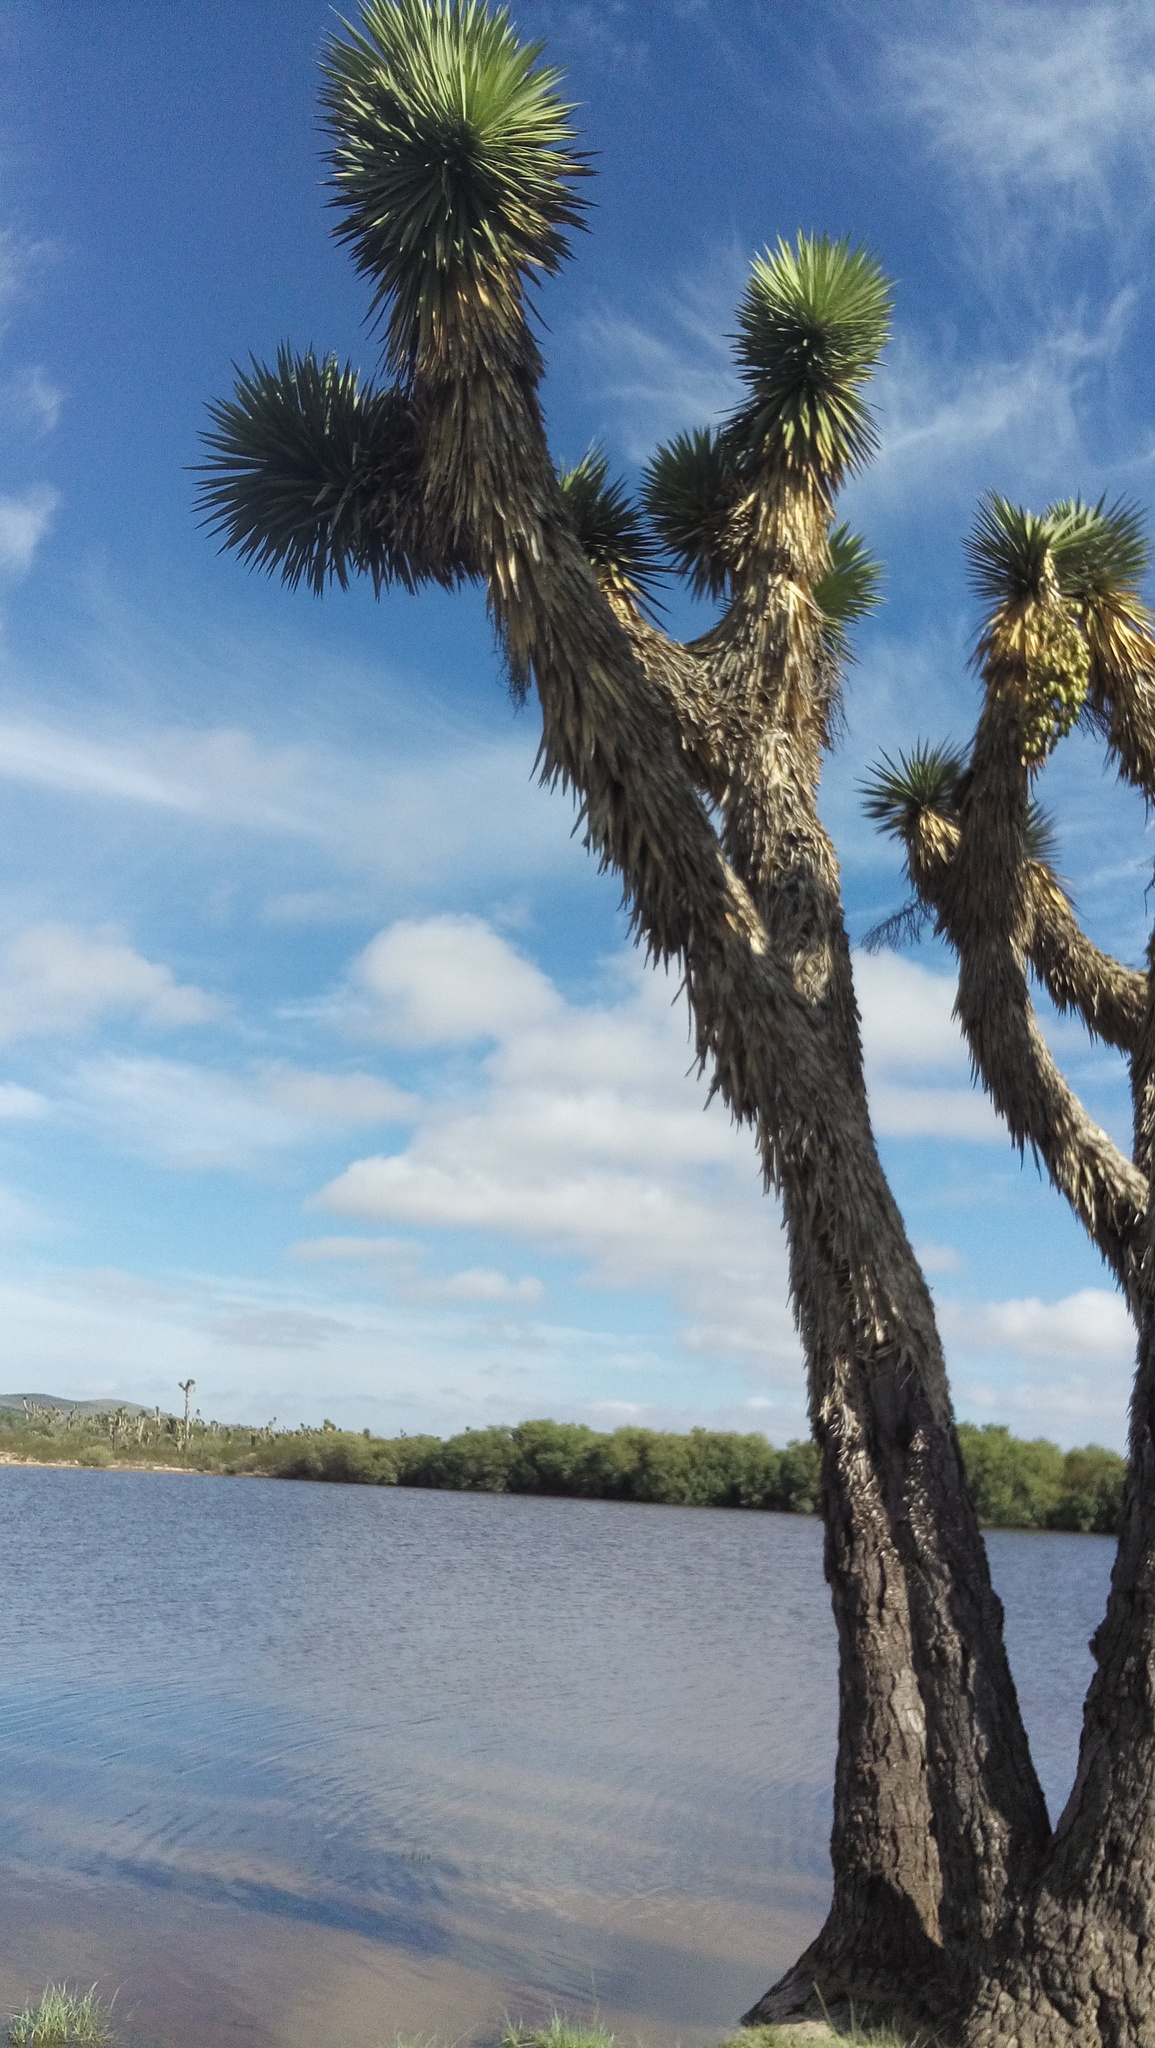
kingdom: Plantae
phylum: Tracheophyta
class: Liliopsida
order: Asparagales
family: Asparagaceae
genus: Yucca
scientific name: Yucca filifera
